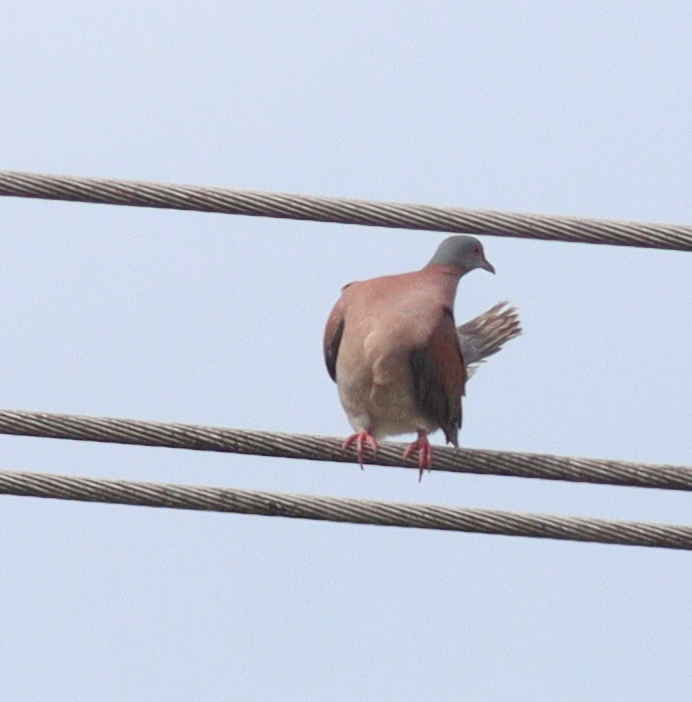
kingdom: Animalia
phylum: Chordata
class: Aves
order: Columbiformes
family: Columbidae
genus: Patagioenas
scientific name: Patagioenas cayennensis
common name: Pale-vented pigeon
